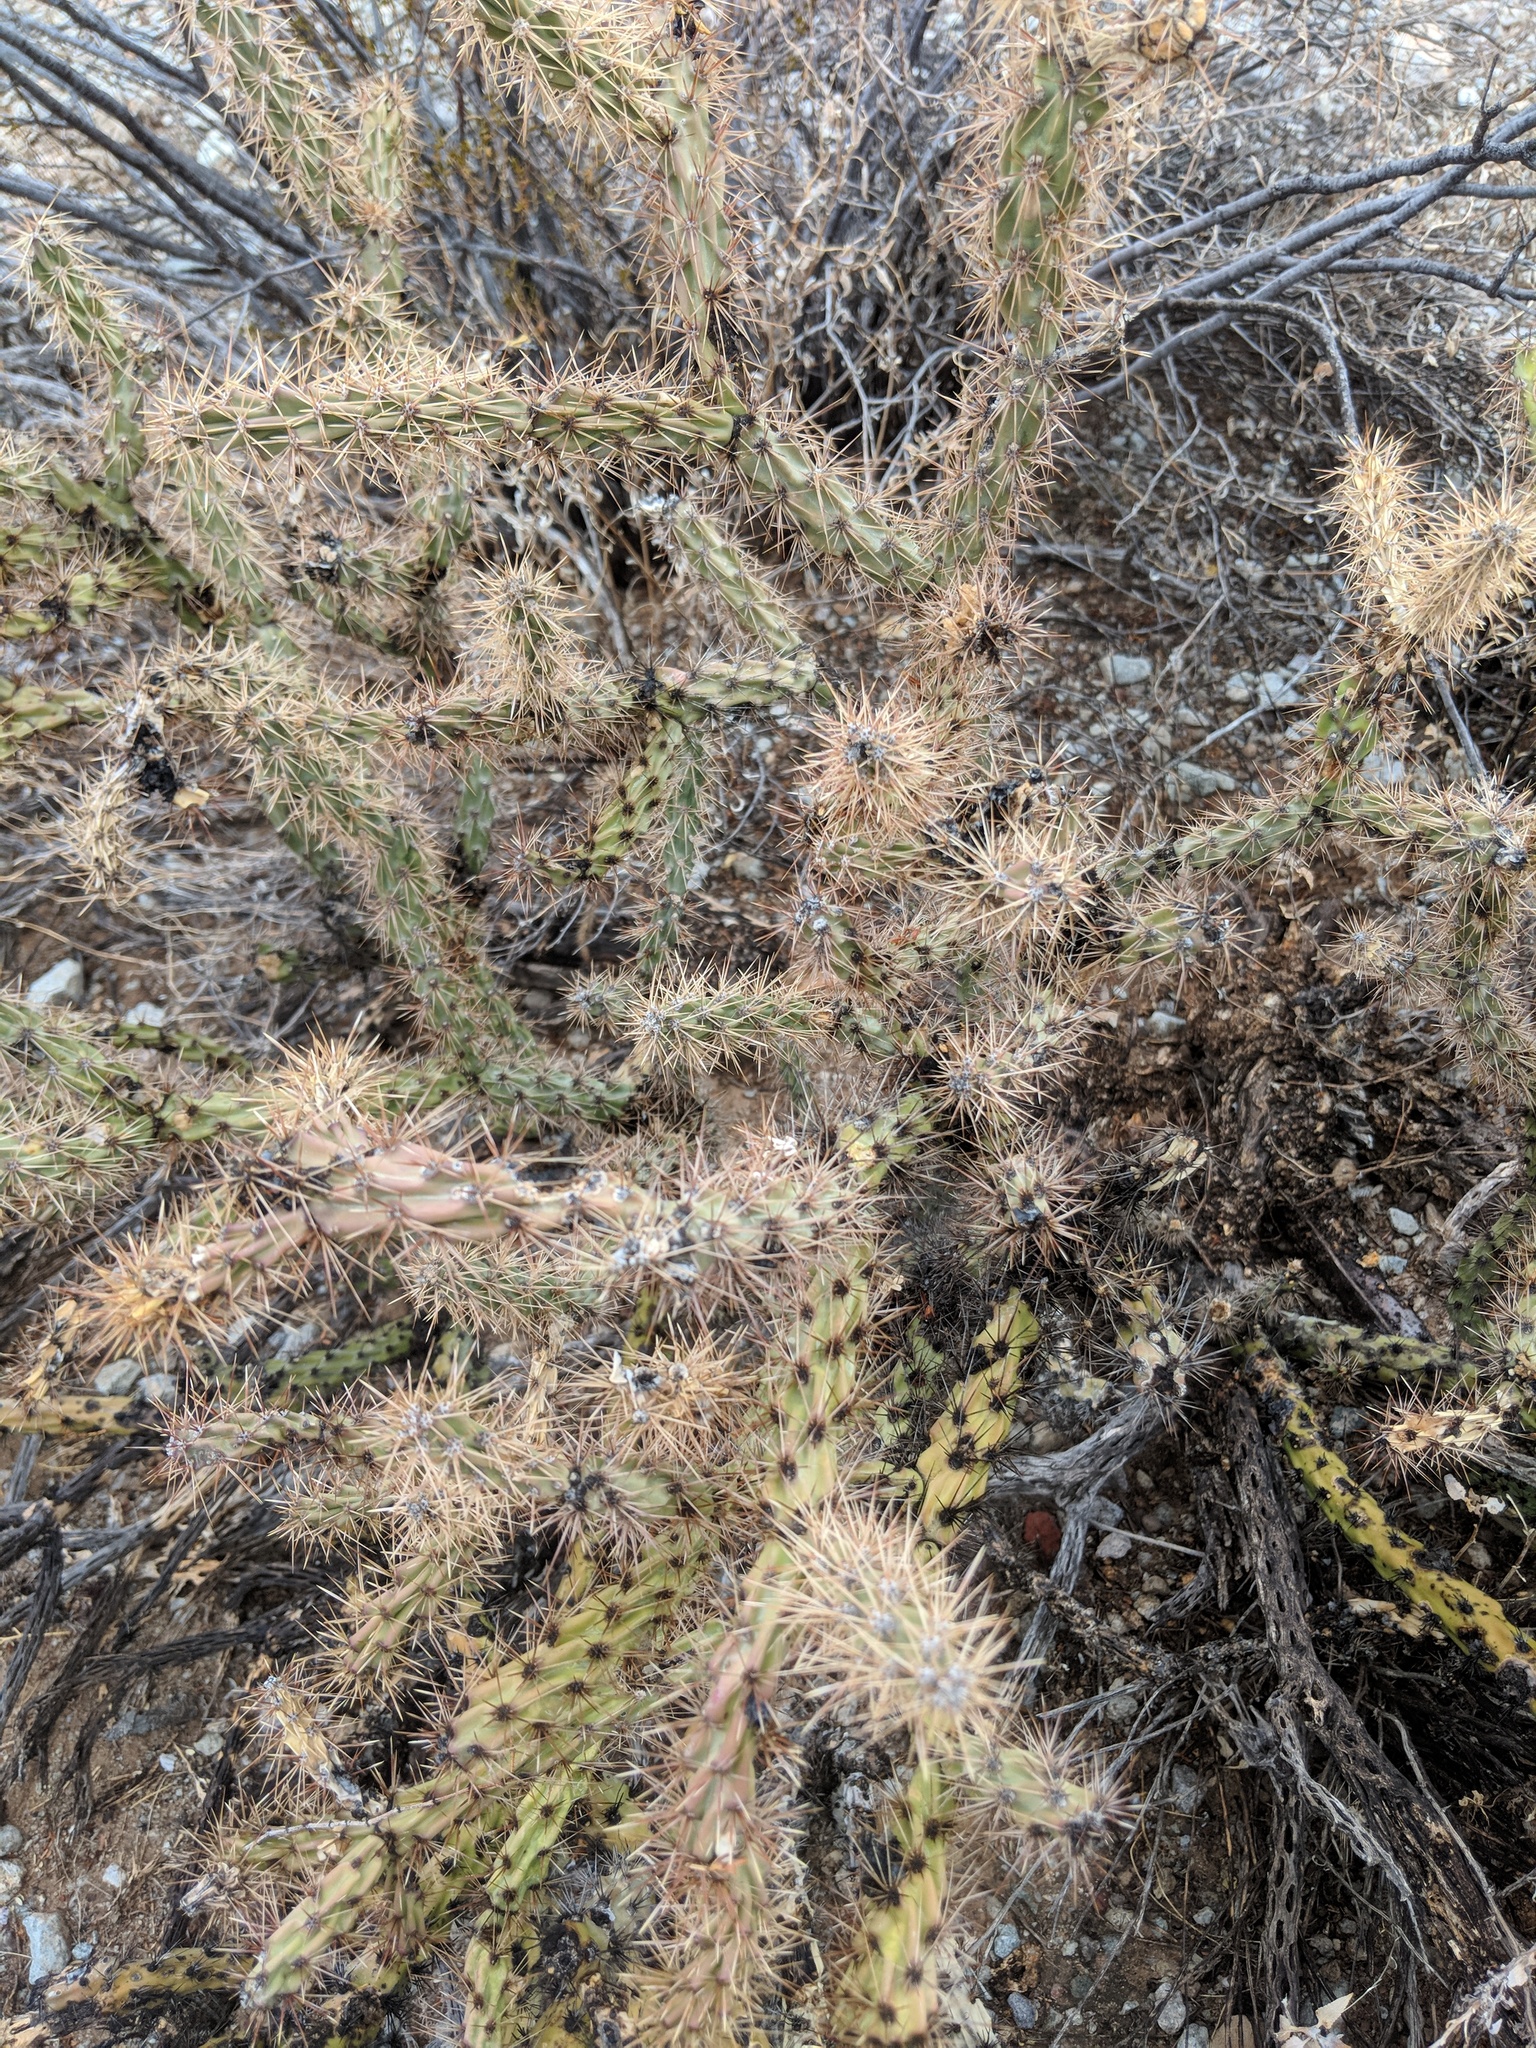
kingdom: Plantae
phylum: Tracheophyta
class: Magnoliopsida
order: Caryophyllales
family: Cactaceae
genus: Cylindropuntia
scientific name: Cylindropuntia acanthocarpa
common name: Buckhorn cholla
